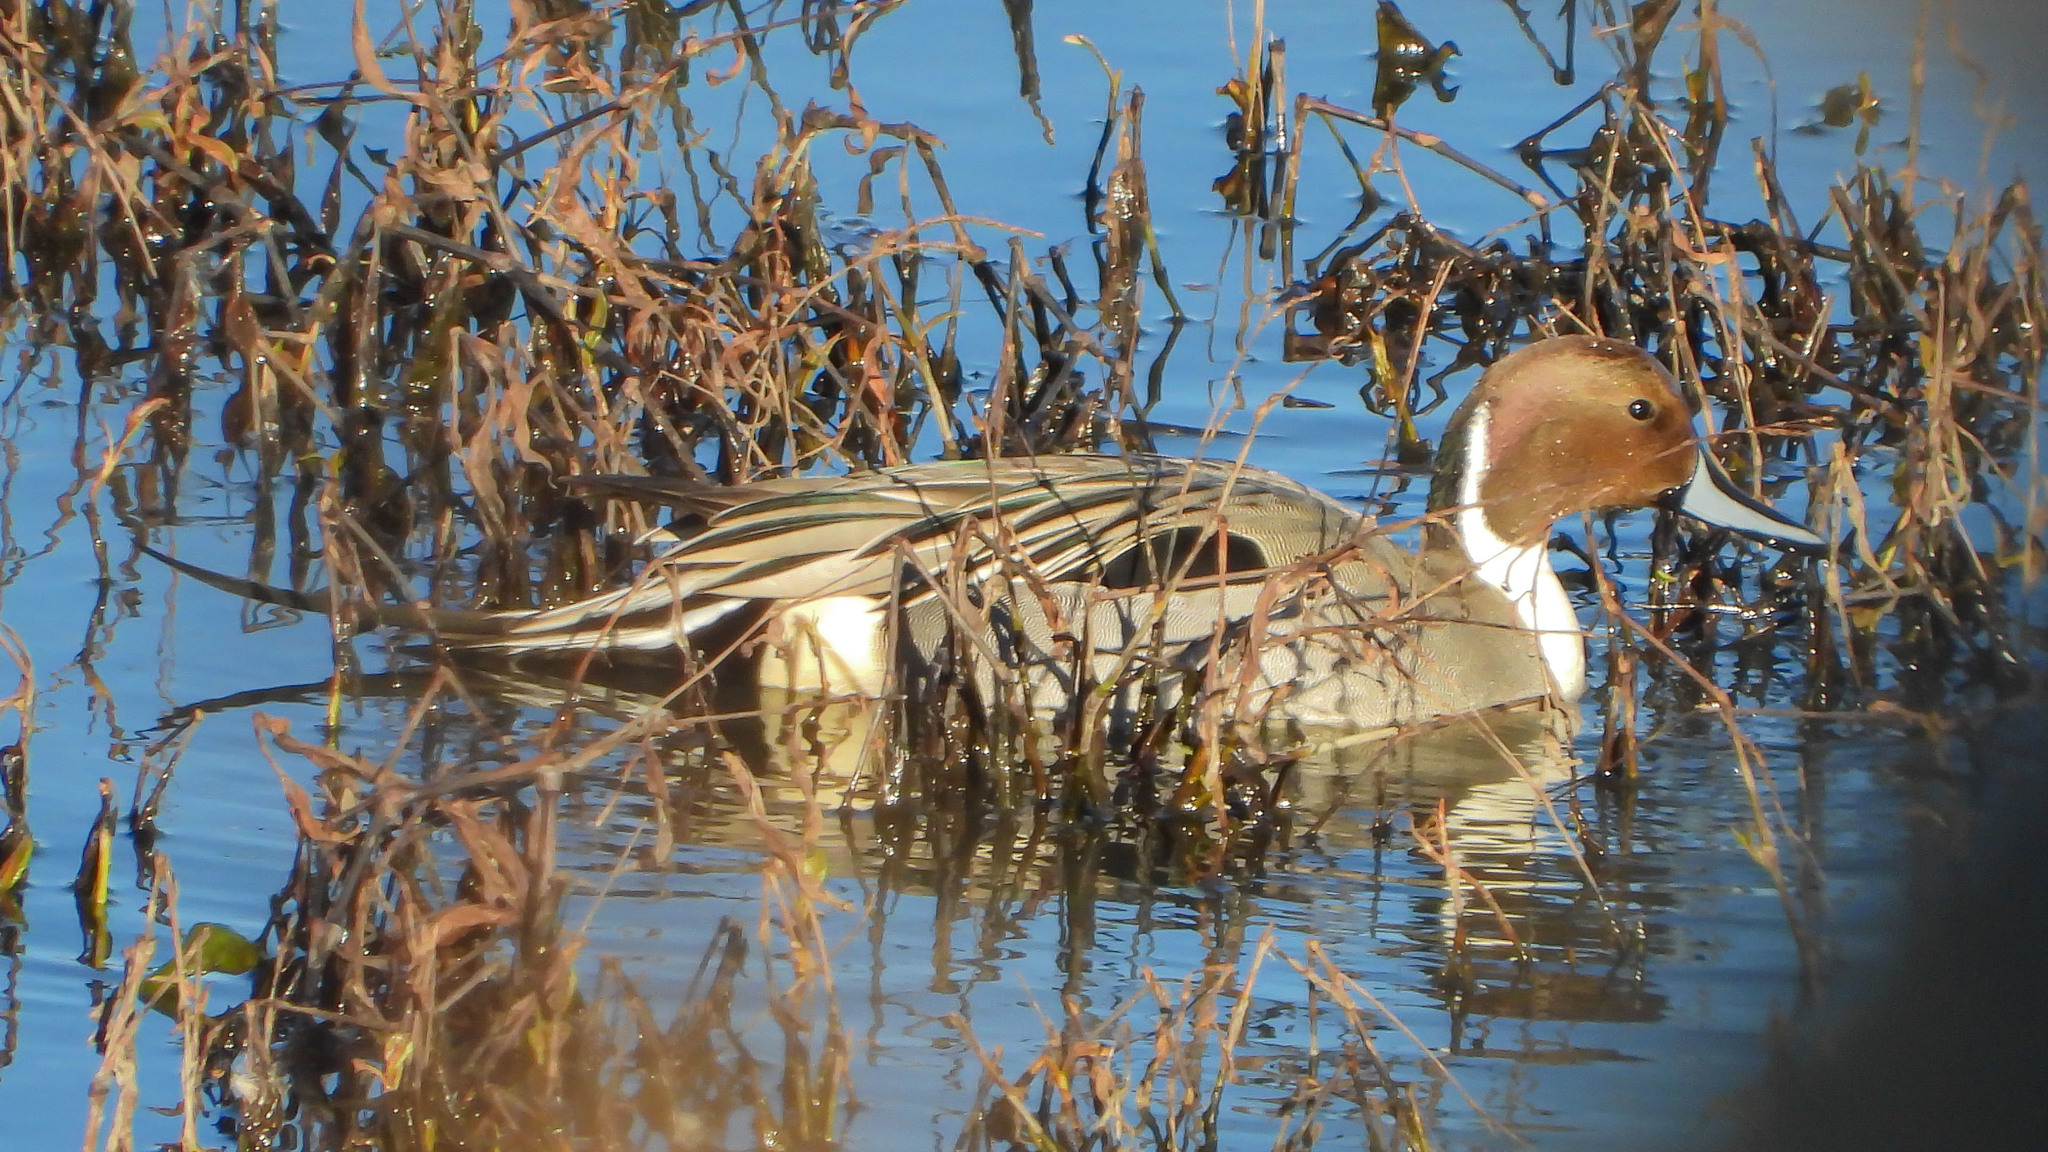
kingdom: Animalia
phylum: Chordata
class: Aves
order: Anseriformes
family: Anatidae
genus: Anas
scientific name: Anas acuta
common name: Northern pintail
